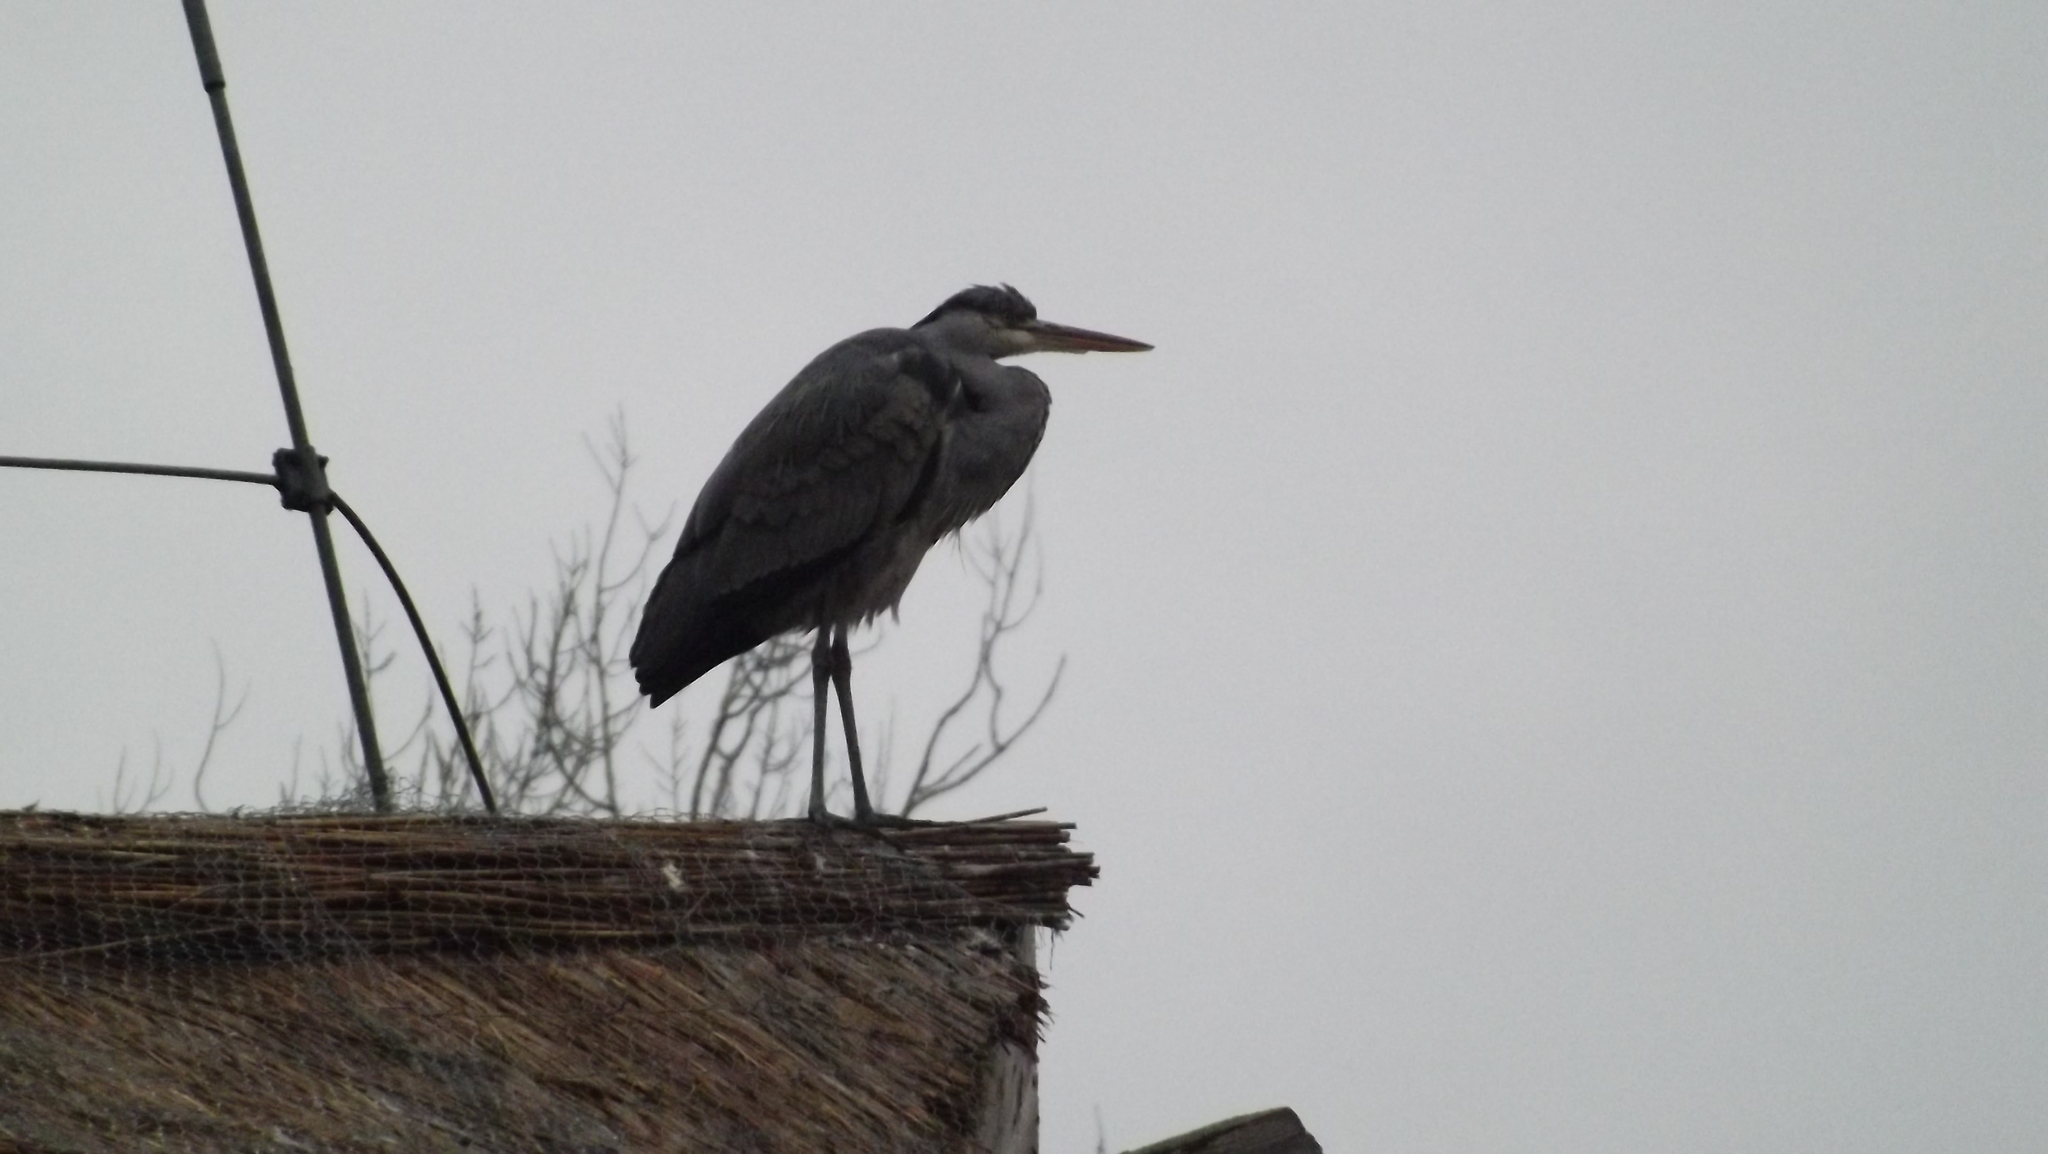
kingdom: Animalia
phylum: Chordata
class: Aves
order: Pelecaniformes
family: Ardeidae
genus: Ardea
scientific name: Ardea cinerea
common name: Grey heron
